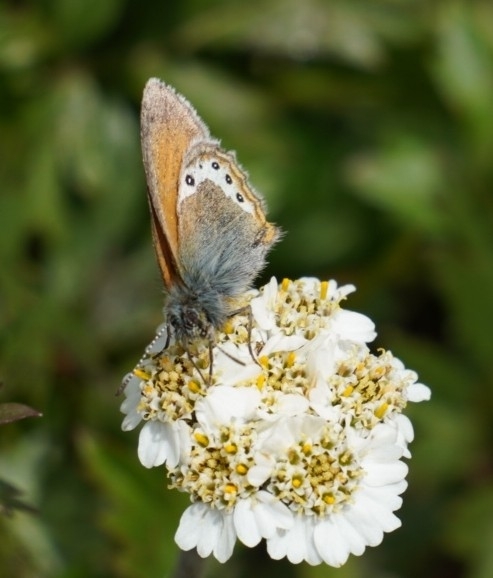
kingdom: Animalia
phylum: Arthropoda
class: Insecta
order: Lepidoptera
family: Nymphalidae
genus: Coenonympha
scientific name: Coenonympha
